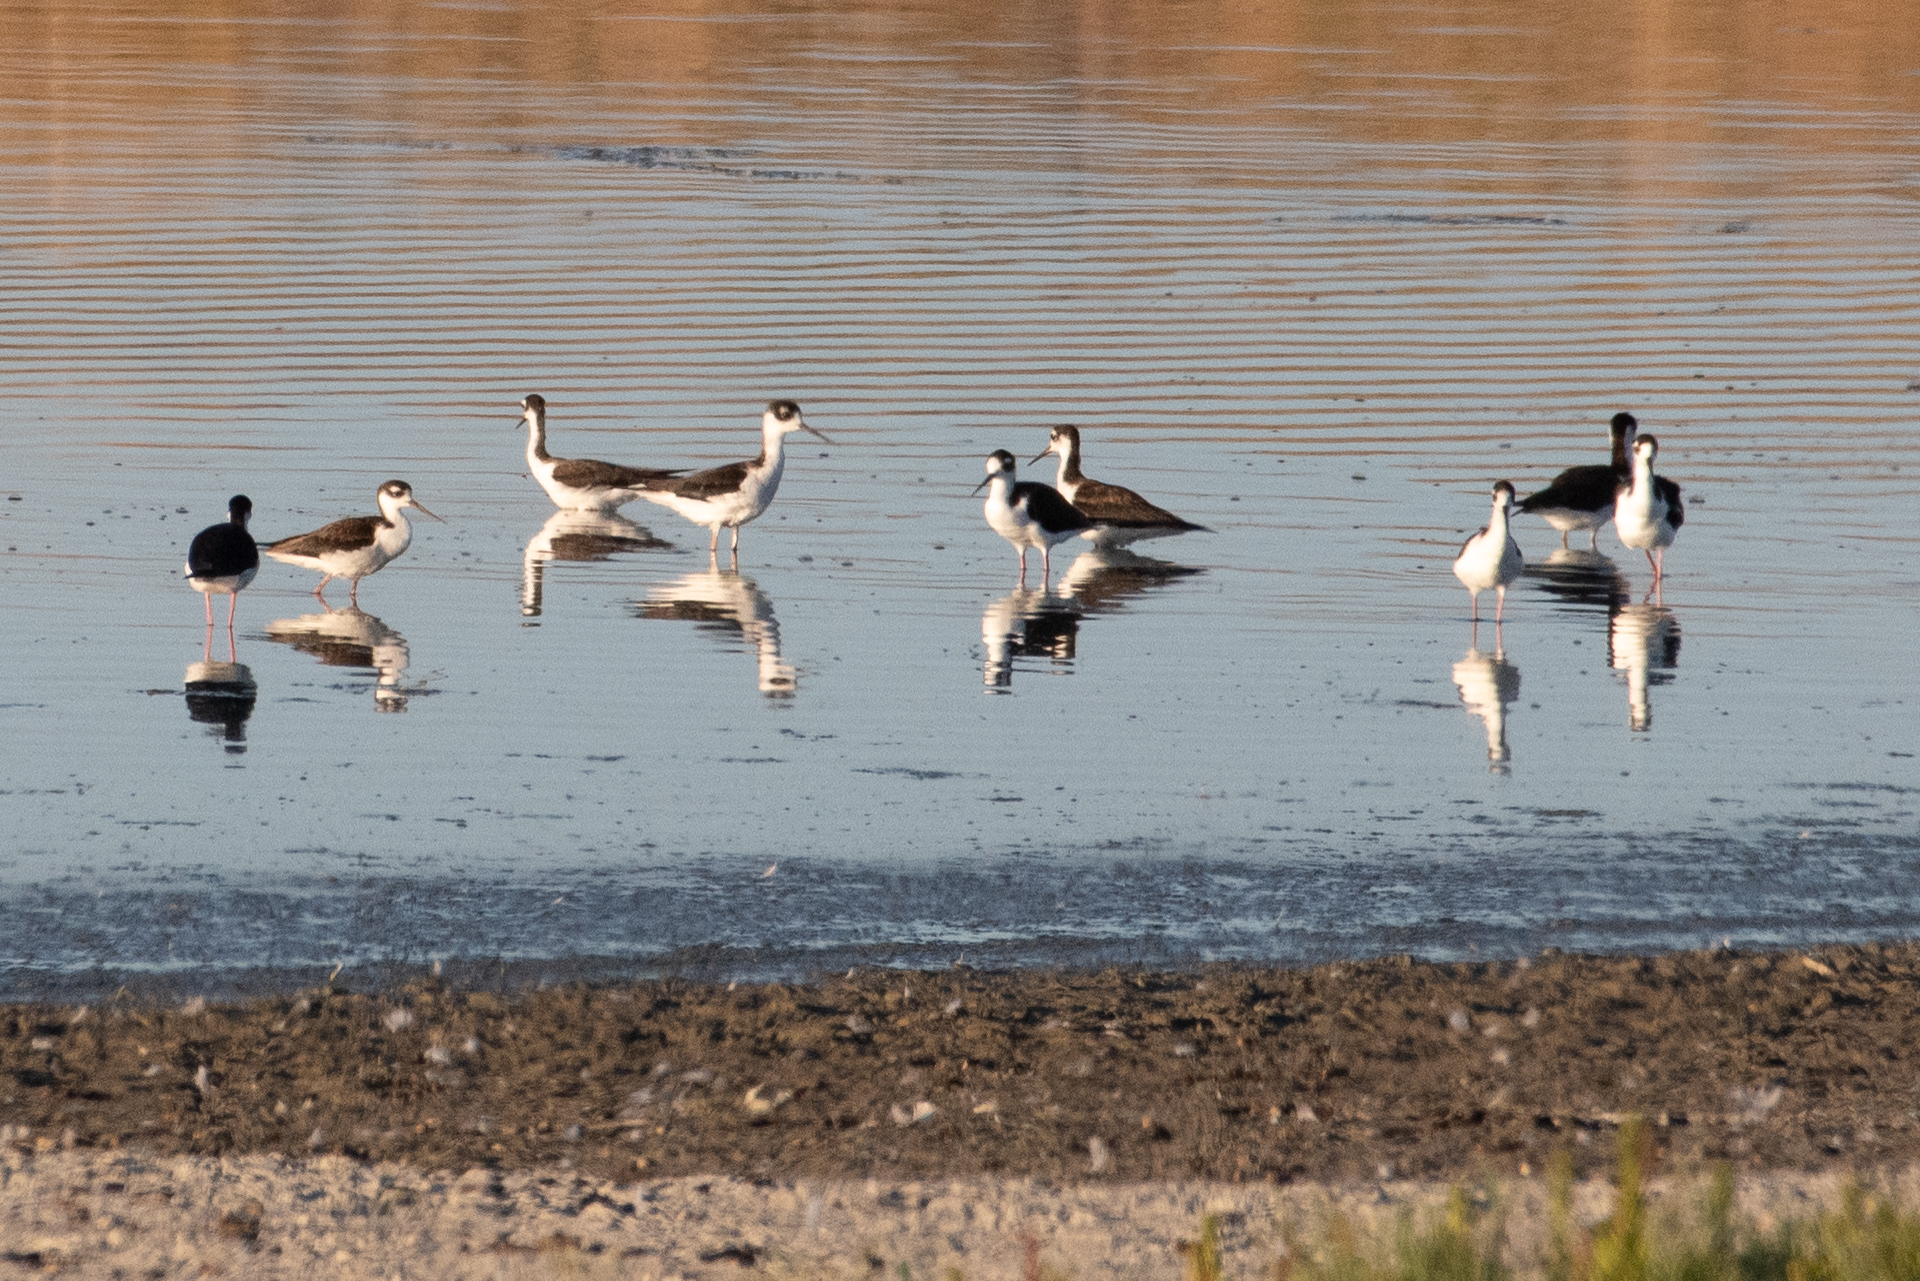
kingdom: Animalia
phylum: Chordata
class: Aves
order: Charadriiformes
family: Recurvirostridae
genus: Himantopus
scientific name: Himantopus mexicanus
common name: Black-necked stilt
